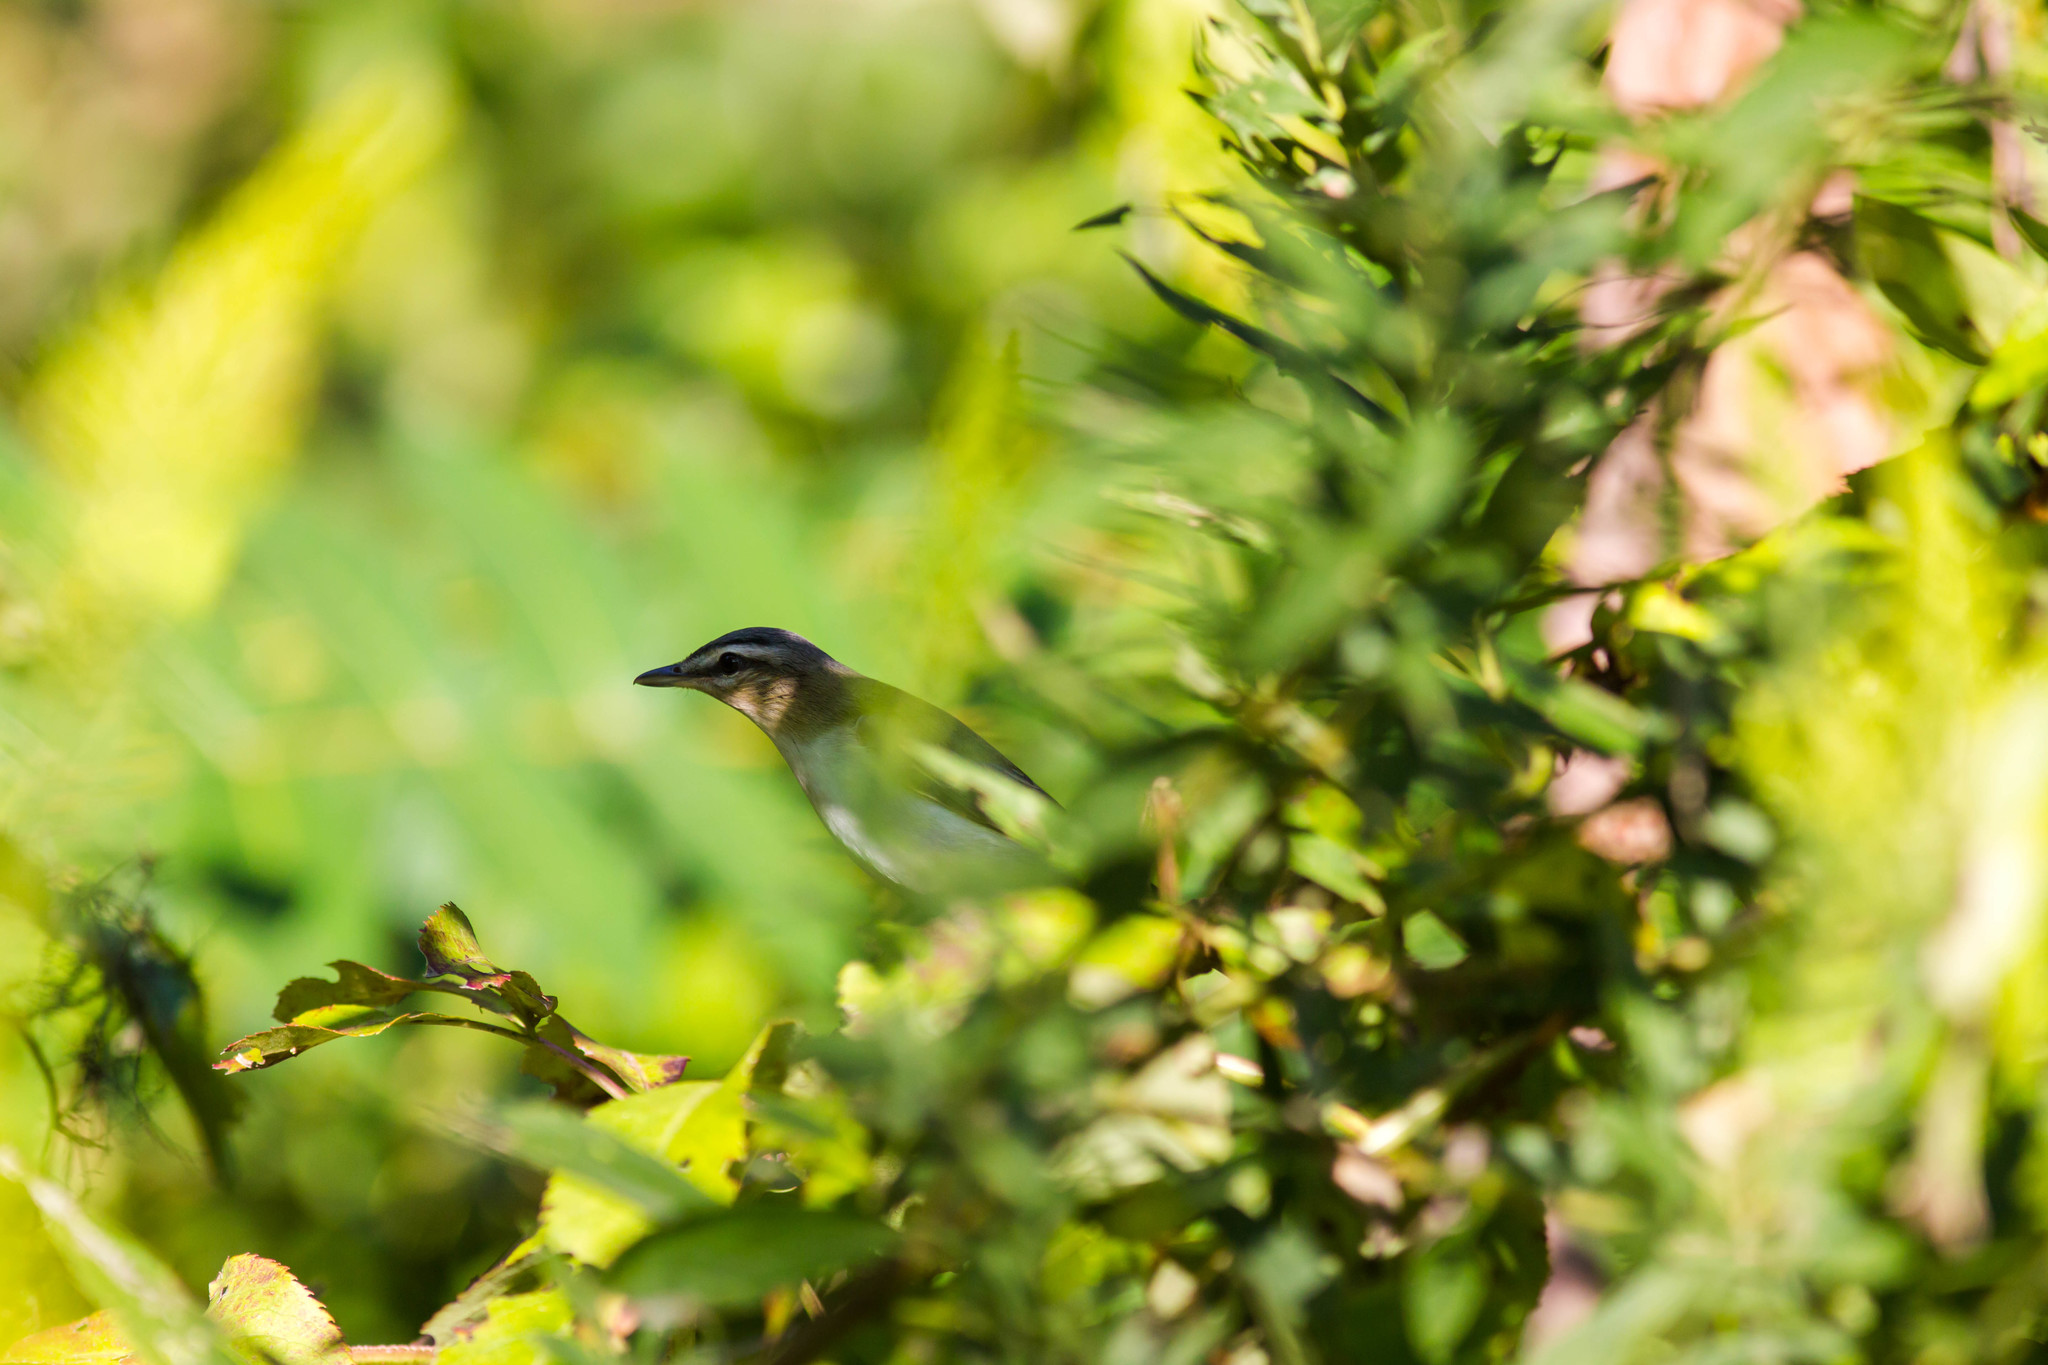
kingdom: Animalia
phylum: Chordata
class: Aves
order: Passeriformes
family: Vireonidae
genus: Vireo
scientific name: Vireo olivaceus
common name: Red-eyed vireo
